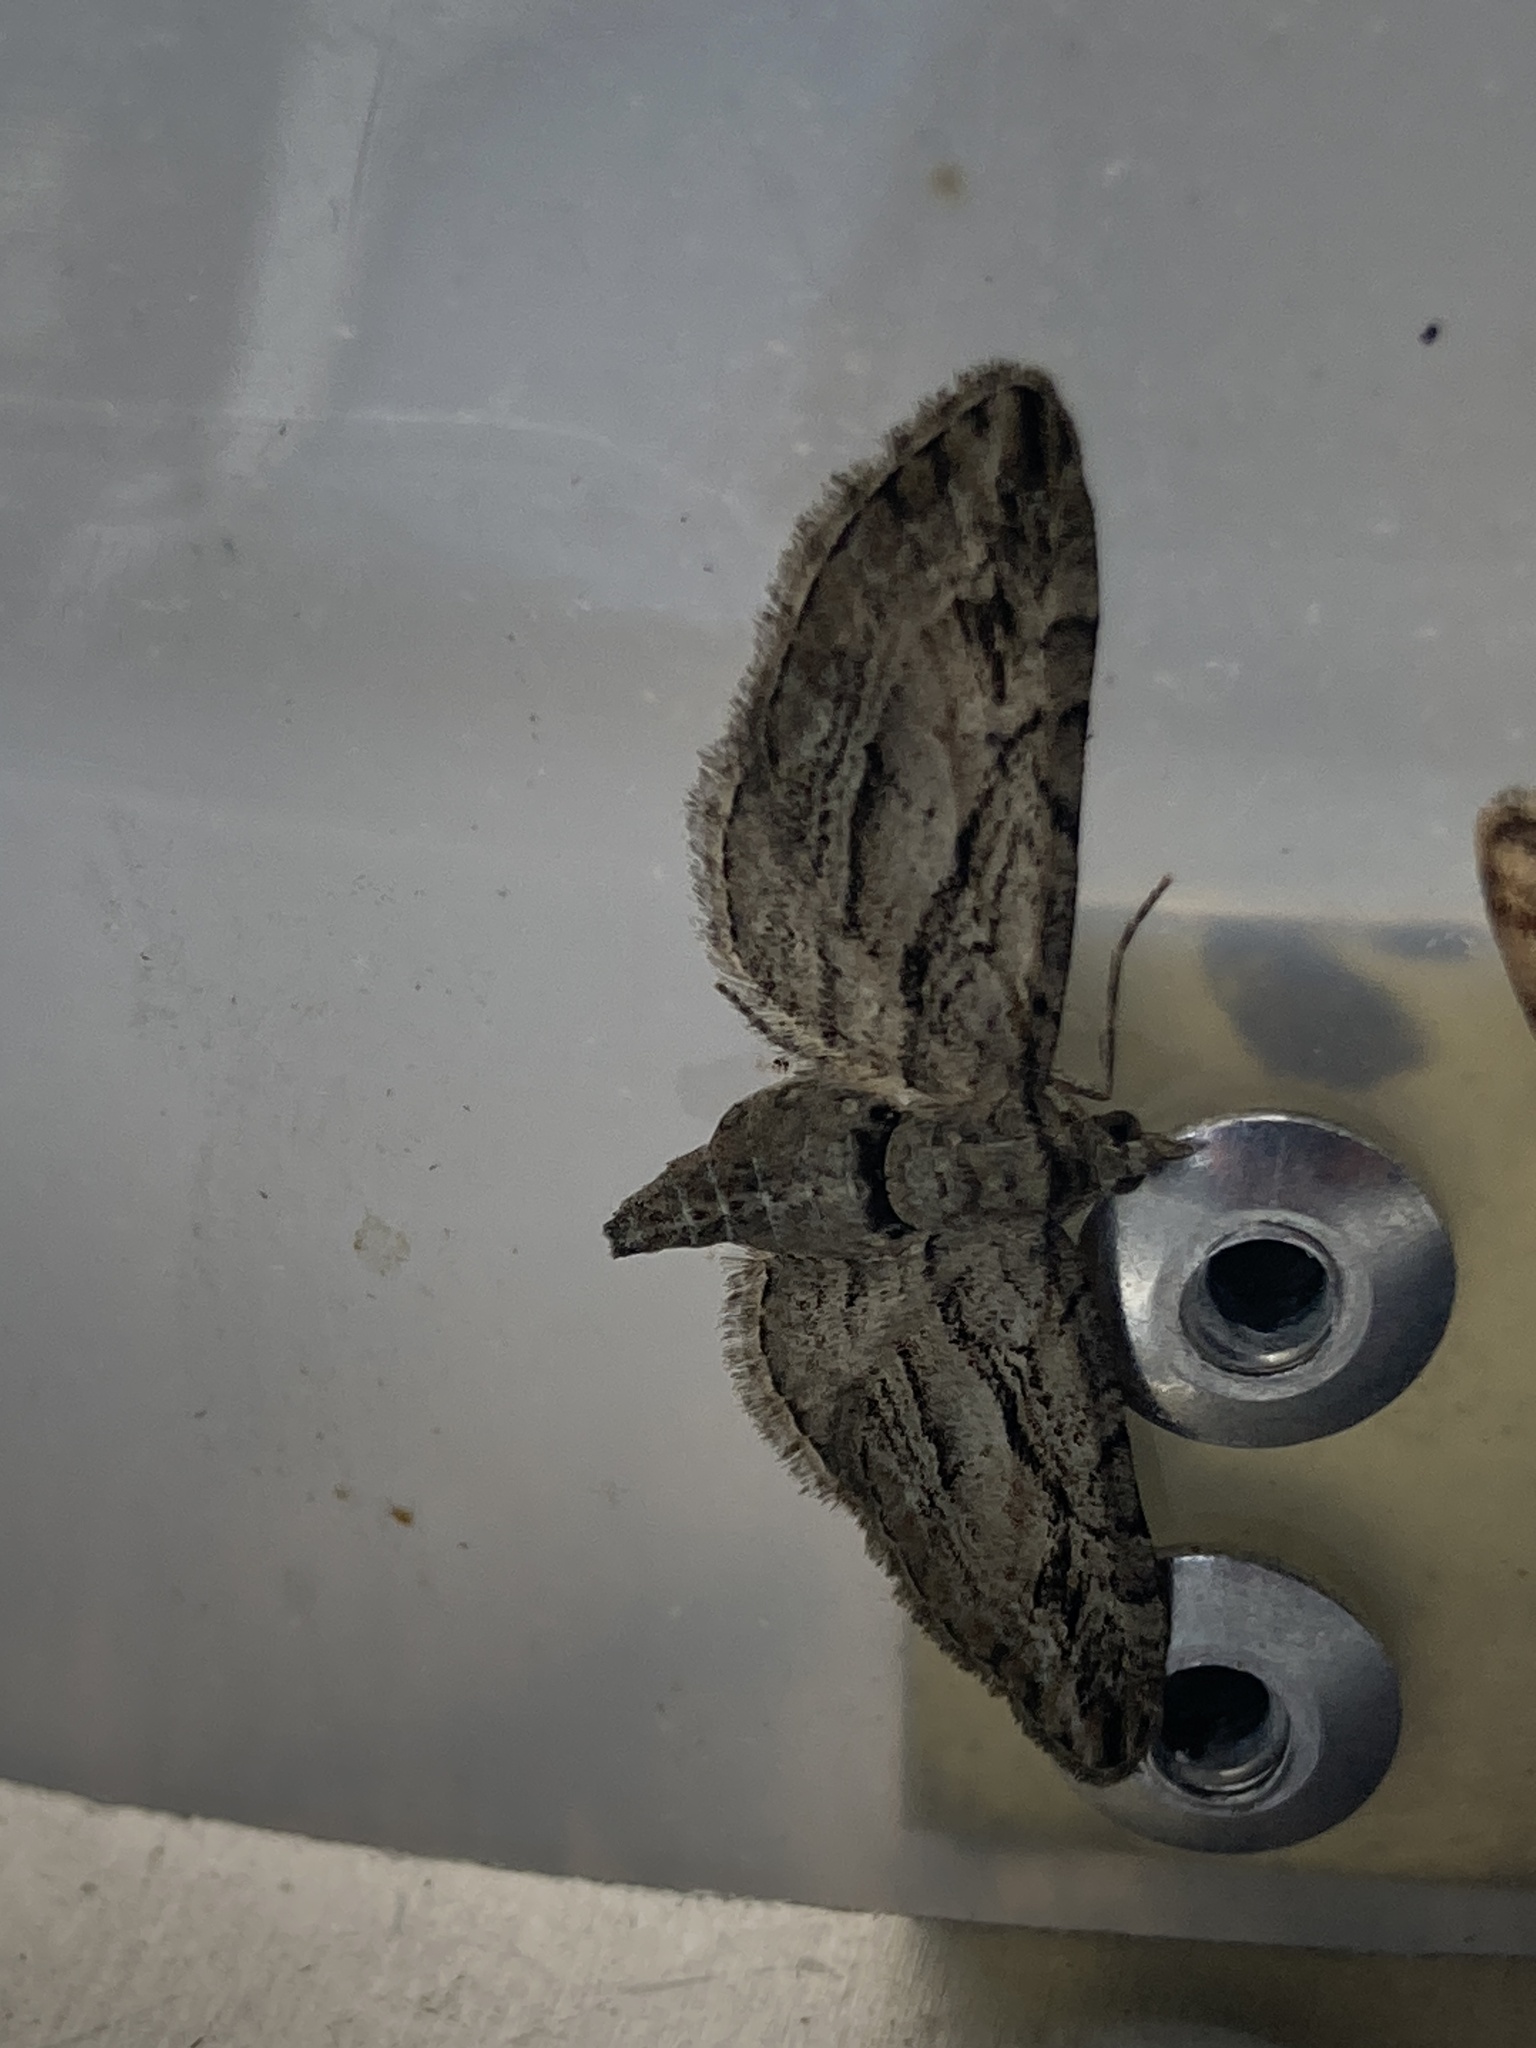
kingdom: Animalia
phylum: Arthropoda
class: Insecta
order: Lepidoptera
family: Geometridae
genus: Eupithecia
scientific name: Eupithecia phoeniceata
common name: Cypress pug
